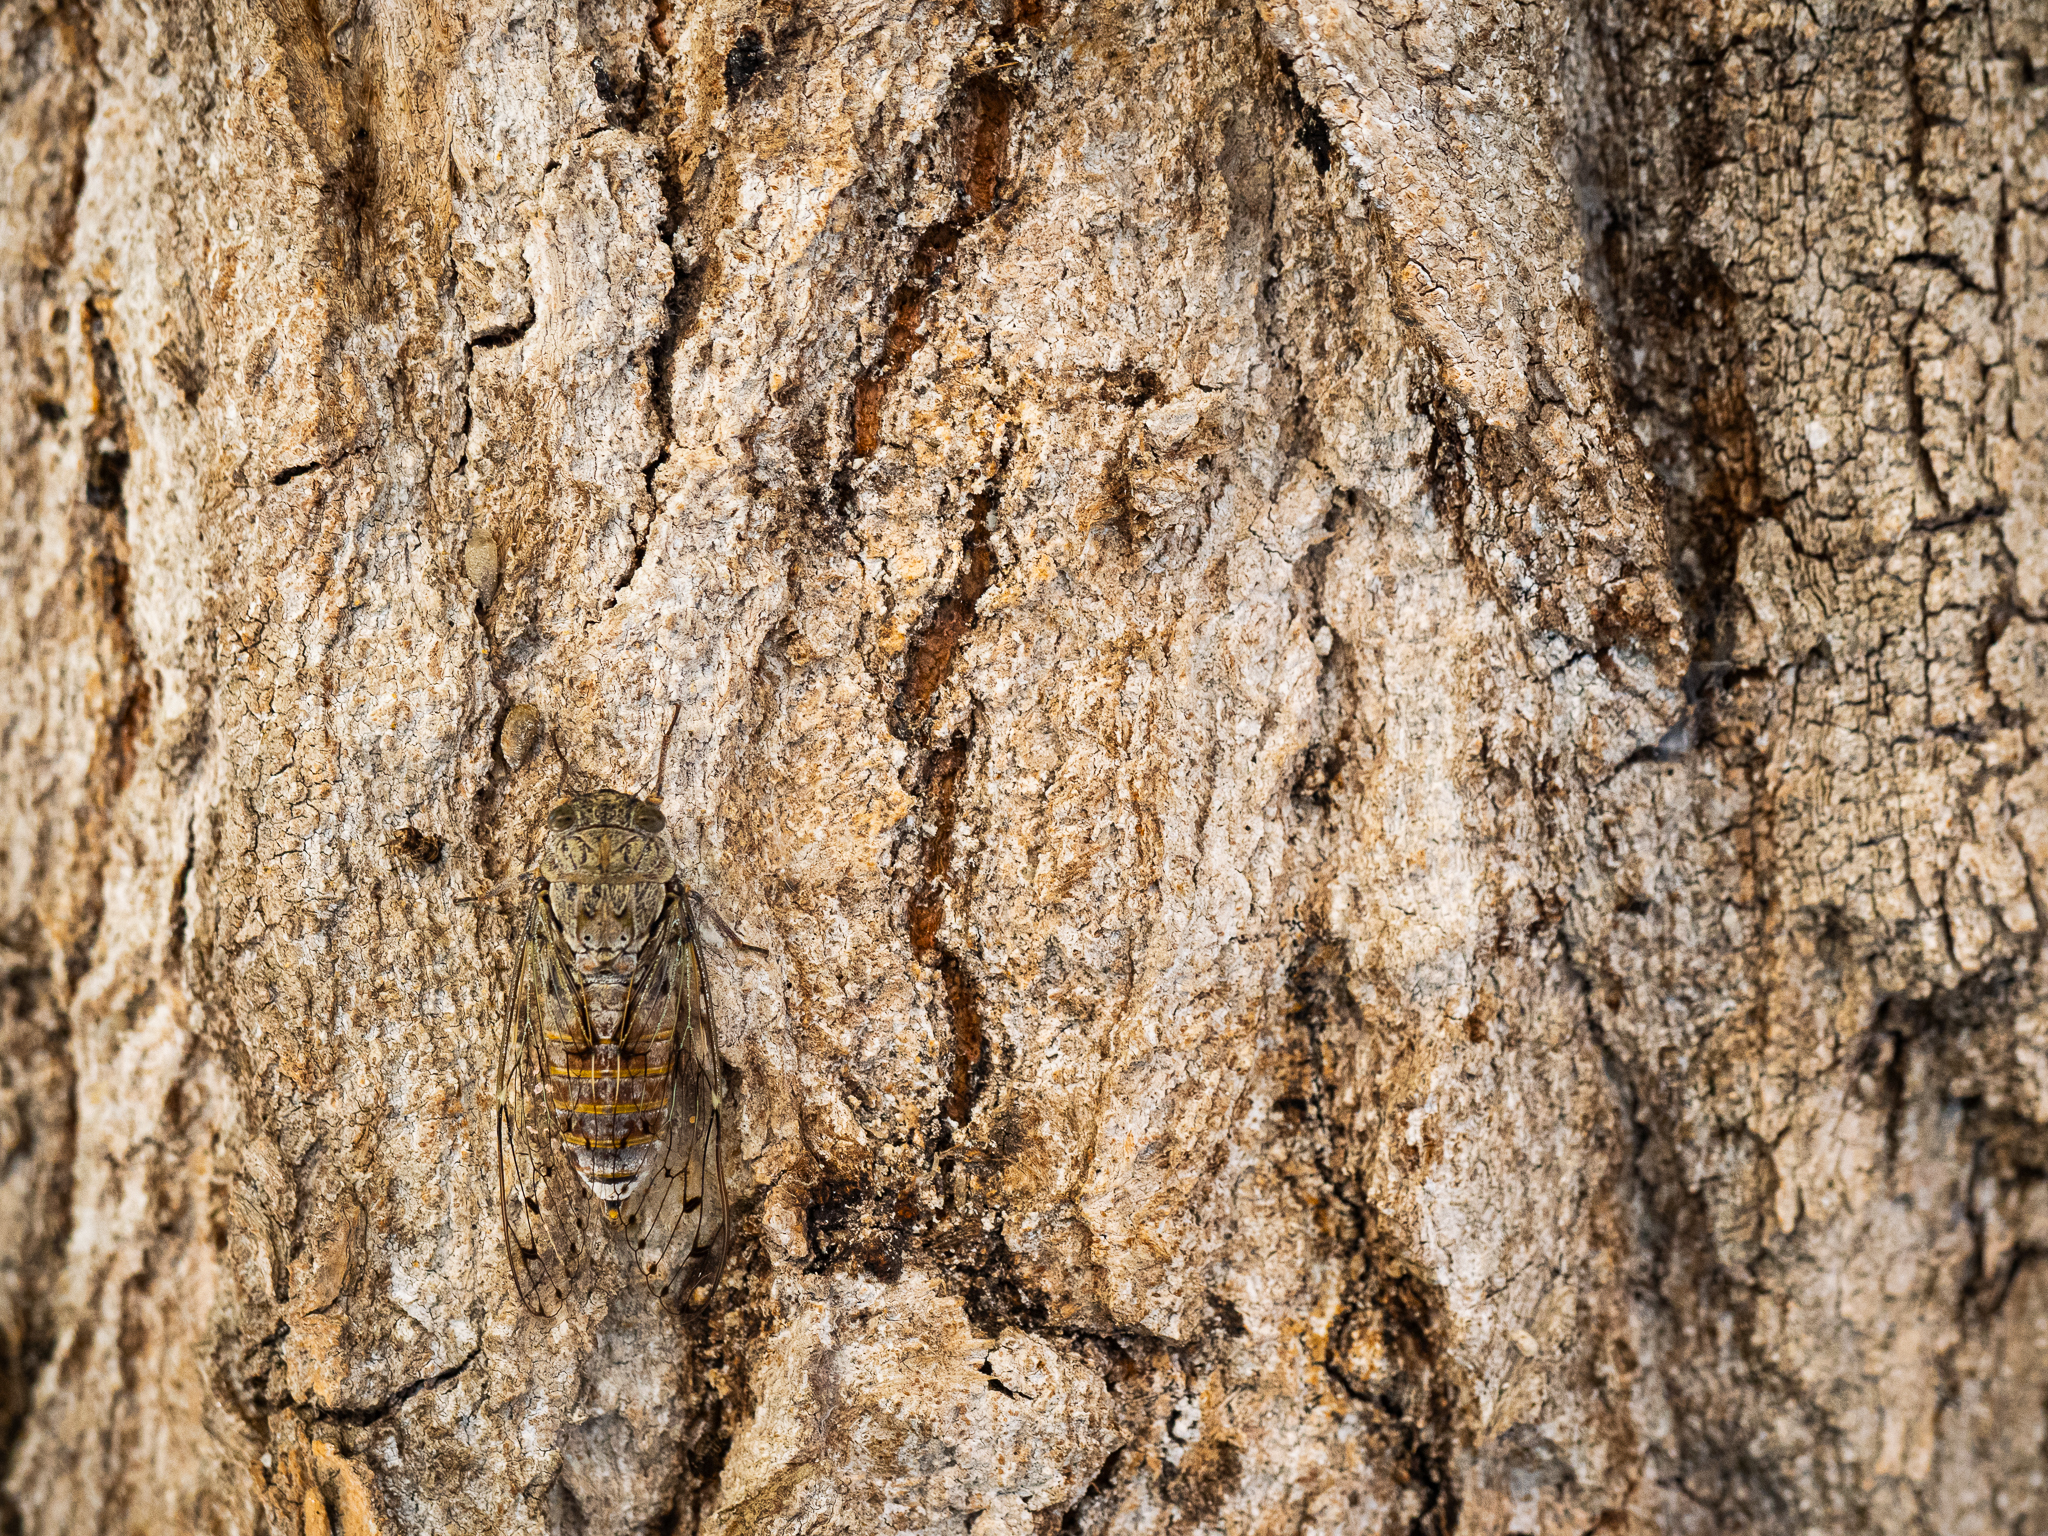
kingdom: Animalia
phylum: Arthropoda
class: Insecta
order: Hemiptera
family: Cicadidae
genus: Cicada
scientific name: Cicada orni
